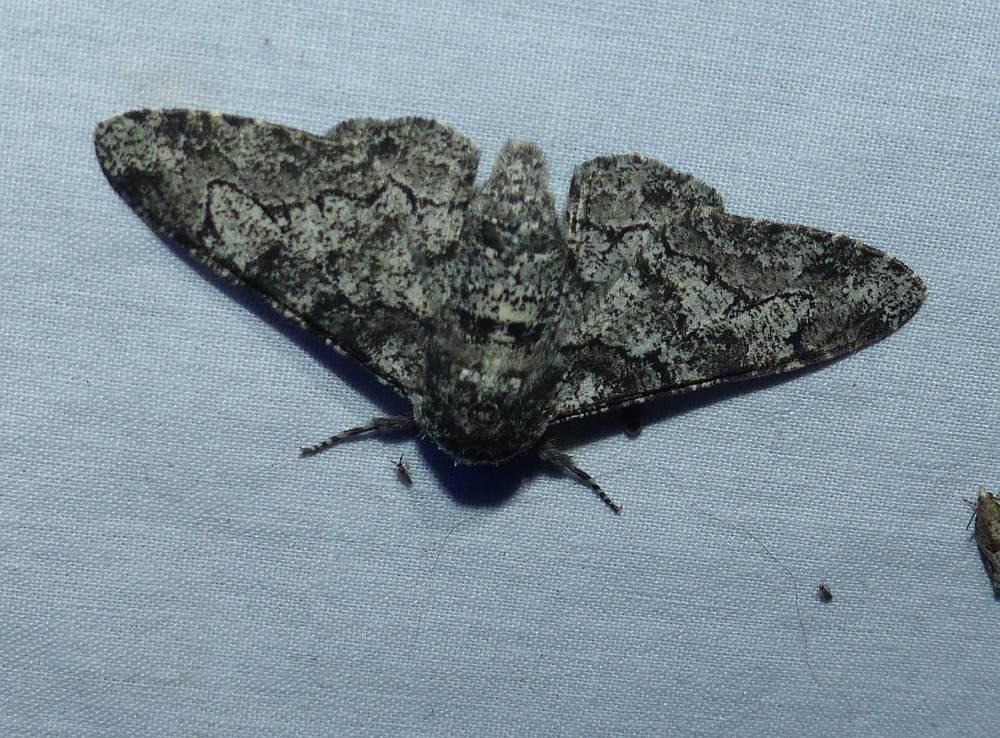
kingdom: Animalia
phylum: Arthropoda
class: Insecta
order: Lepidoptera
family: Geometridae
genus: Biston
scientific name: Biston betularia
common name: Peppered moth
